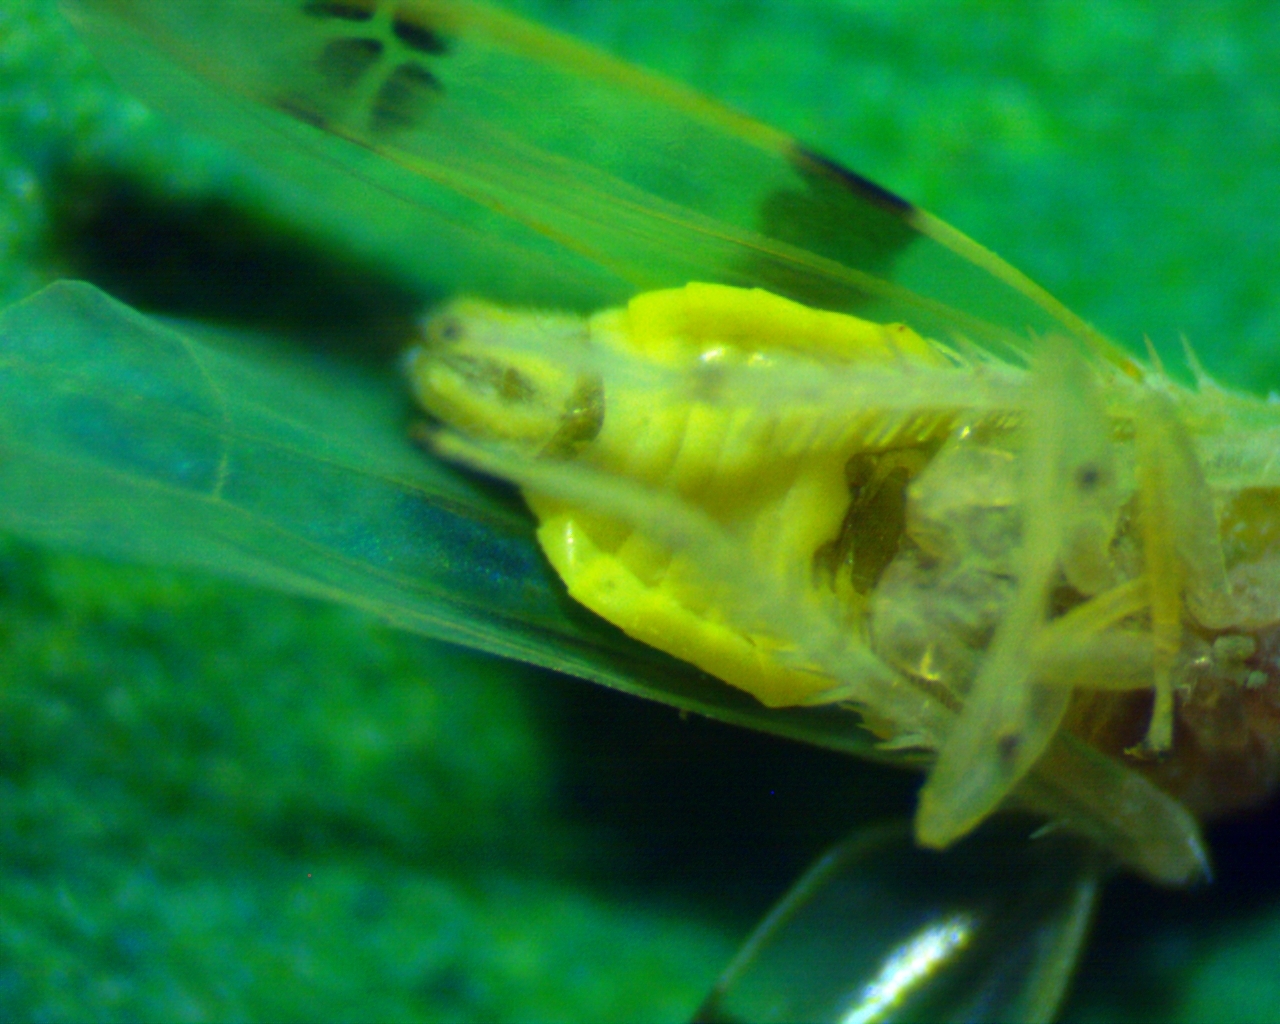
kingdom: Animalia
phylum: Arthropoda
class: Insecta
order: Hemiptera
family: Cicadellidae
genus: Empoa
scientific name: Empoa gillettei
